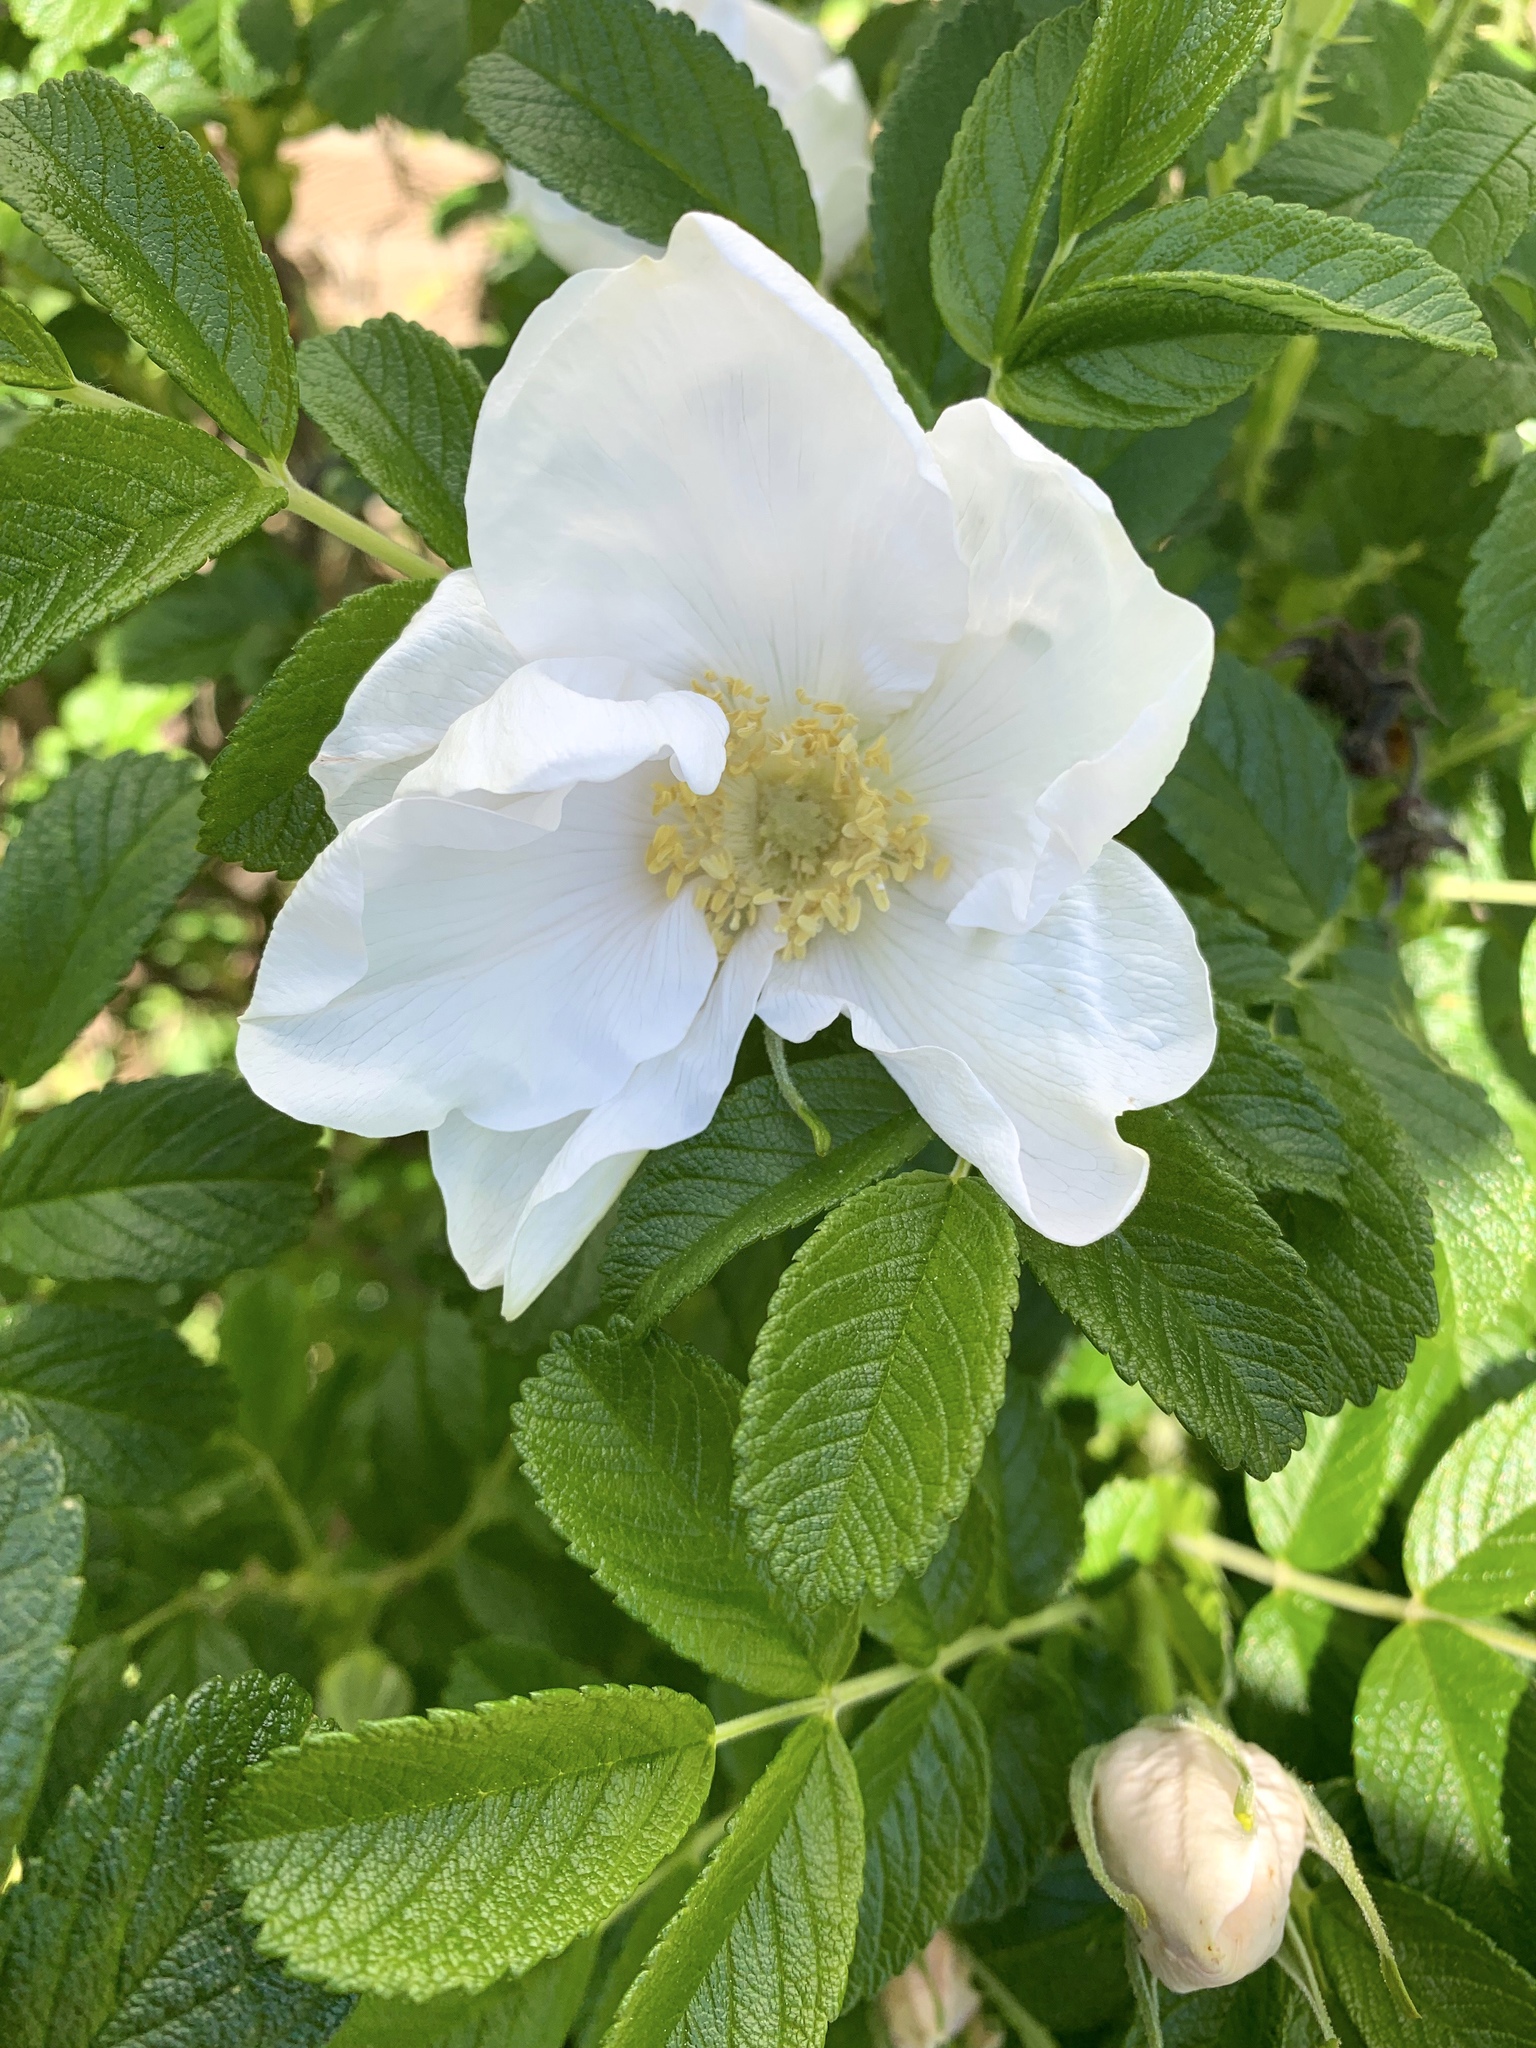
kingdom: Plantae
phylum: Tracheophyta
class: Magnoliopsida
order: Rosales
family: Rosaceae
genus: Rosa
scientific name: Rosa rugosa
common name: Japanese rose
